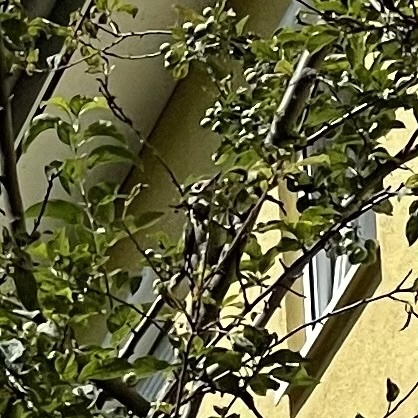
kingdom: Animalia
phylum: Chordata
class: Aves
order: Piciformes
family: Picidae
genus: Dendrocopos
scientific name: Dendrocopos major
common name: Great spotted woodpecker
